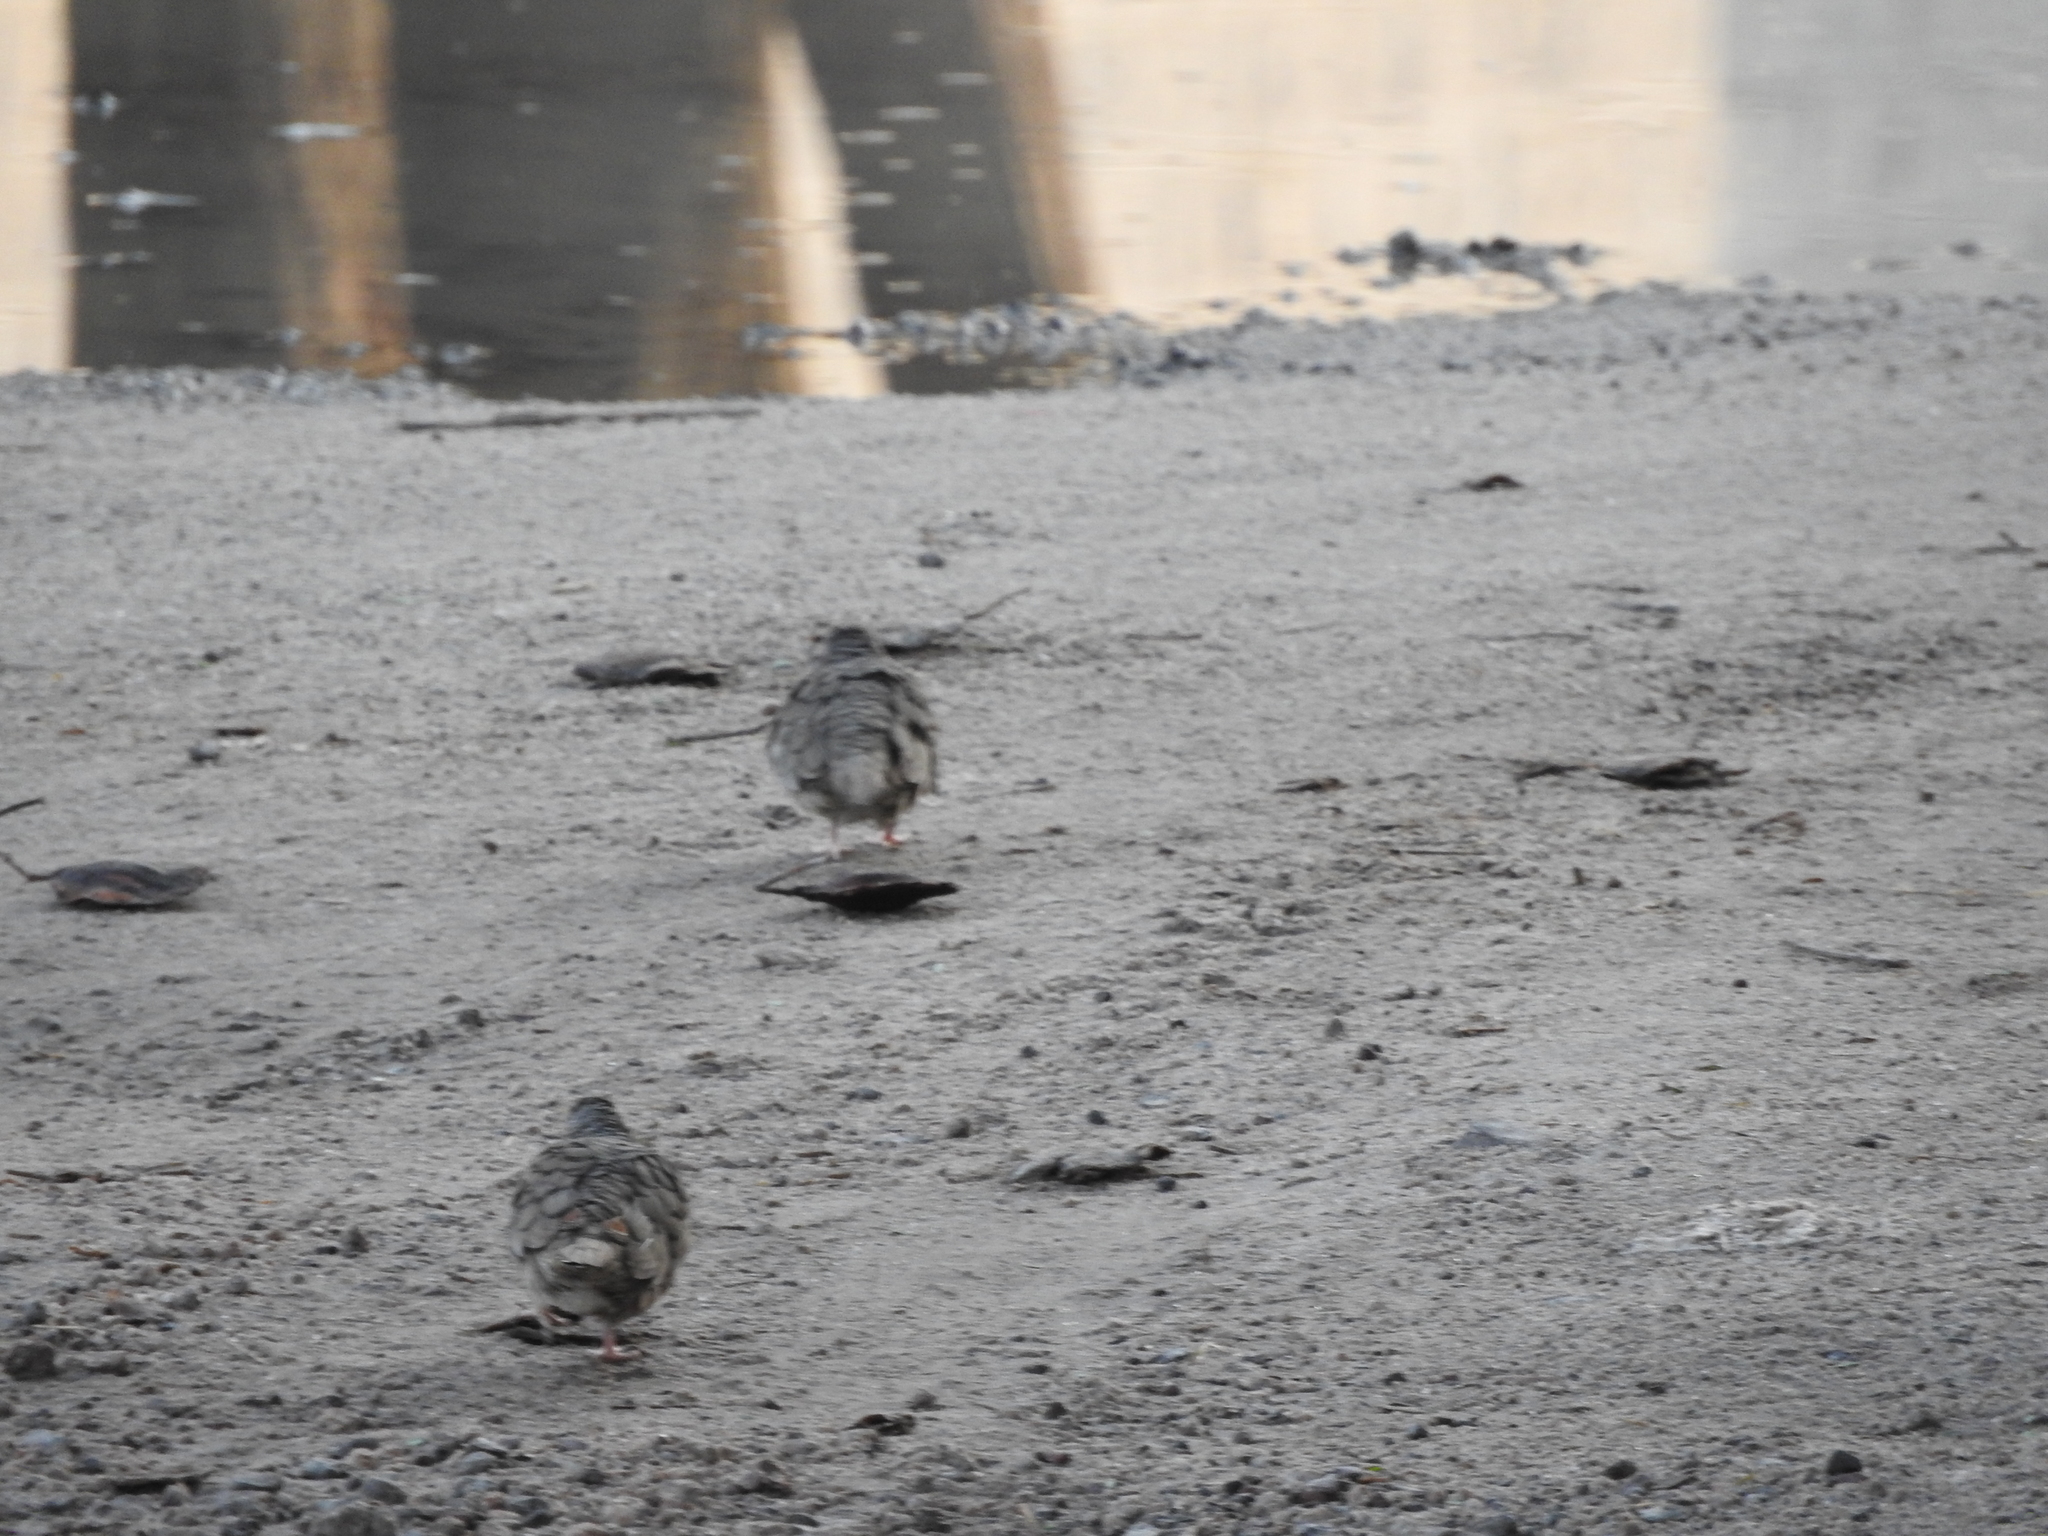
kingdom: Animalia
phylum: Chordata
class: Aves
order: Columbiformes
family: Columbidae
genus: Columbina
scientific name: Columbina inca
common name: Inca dove
